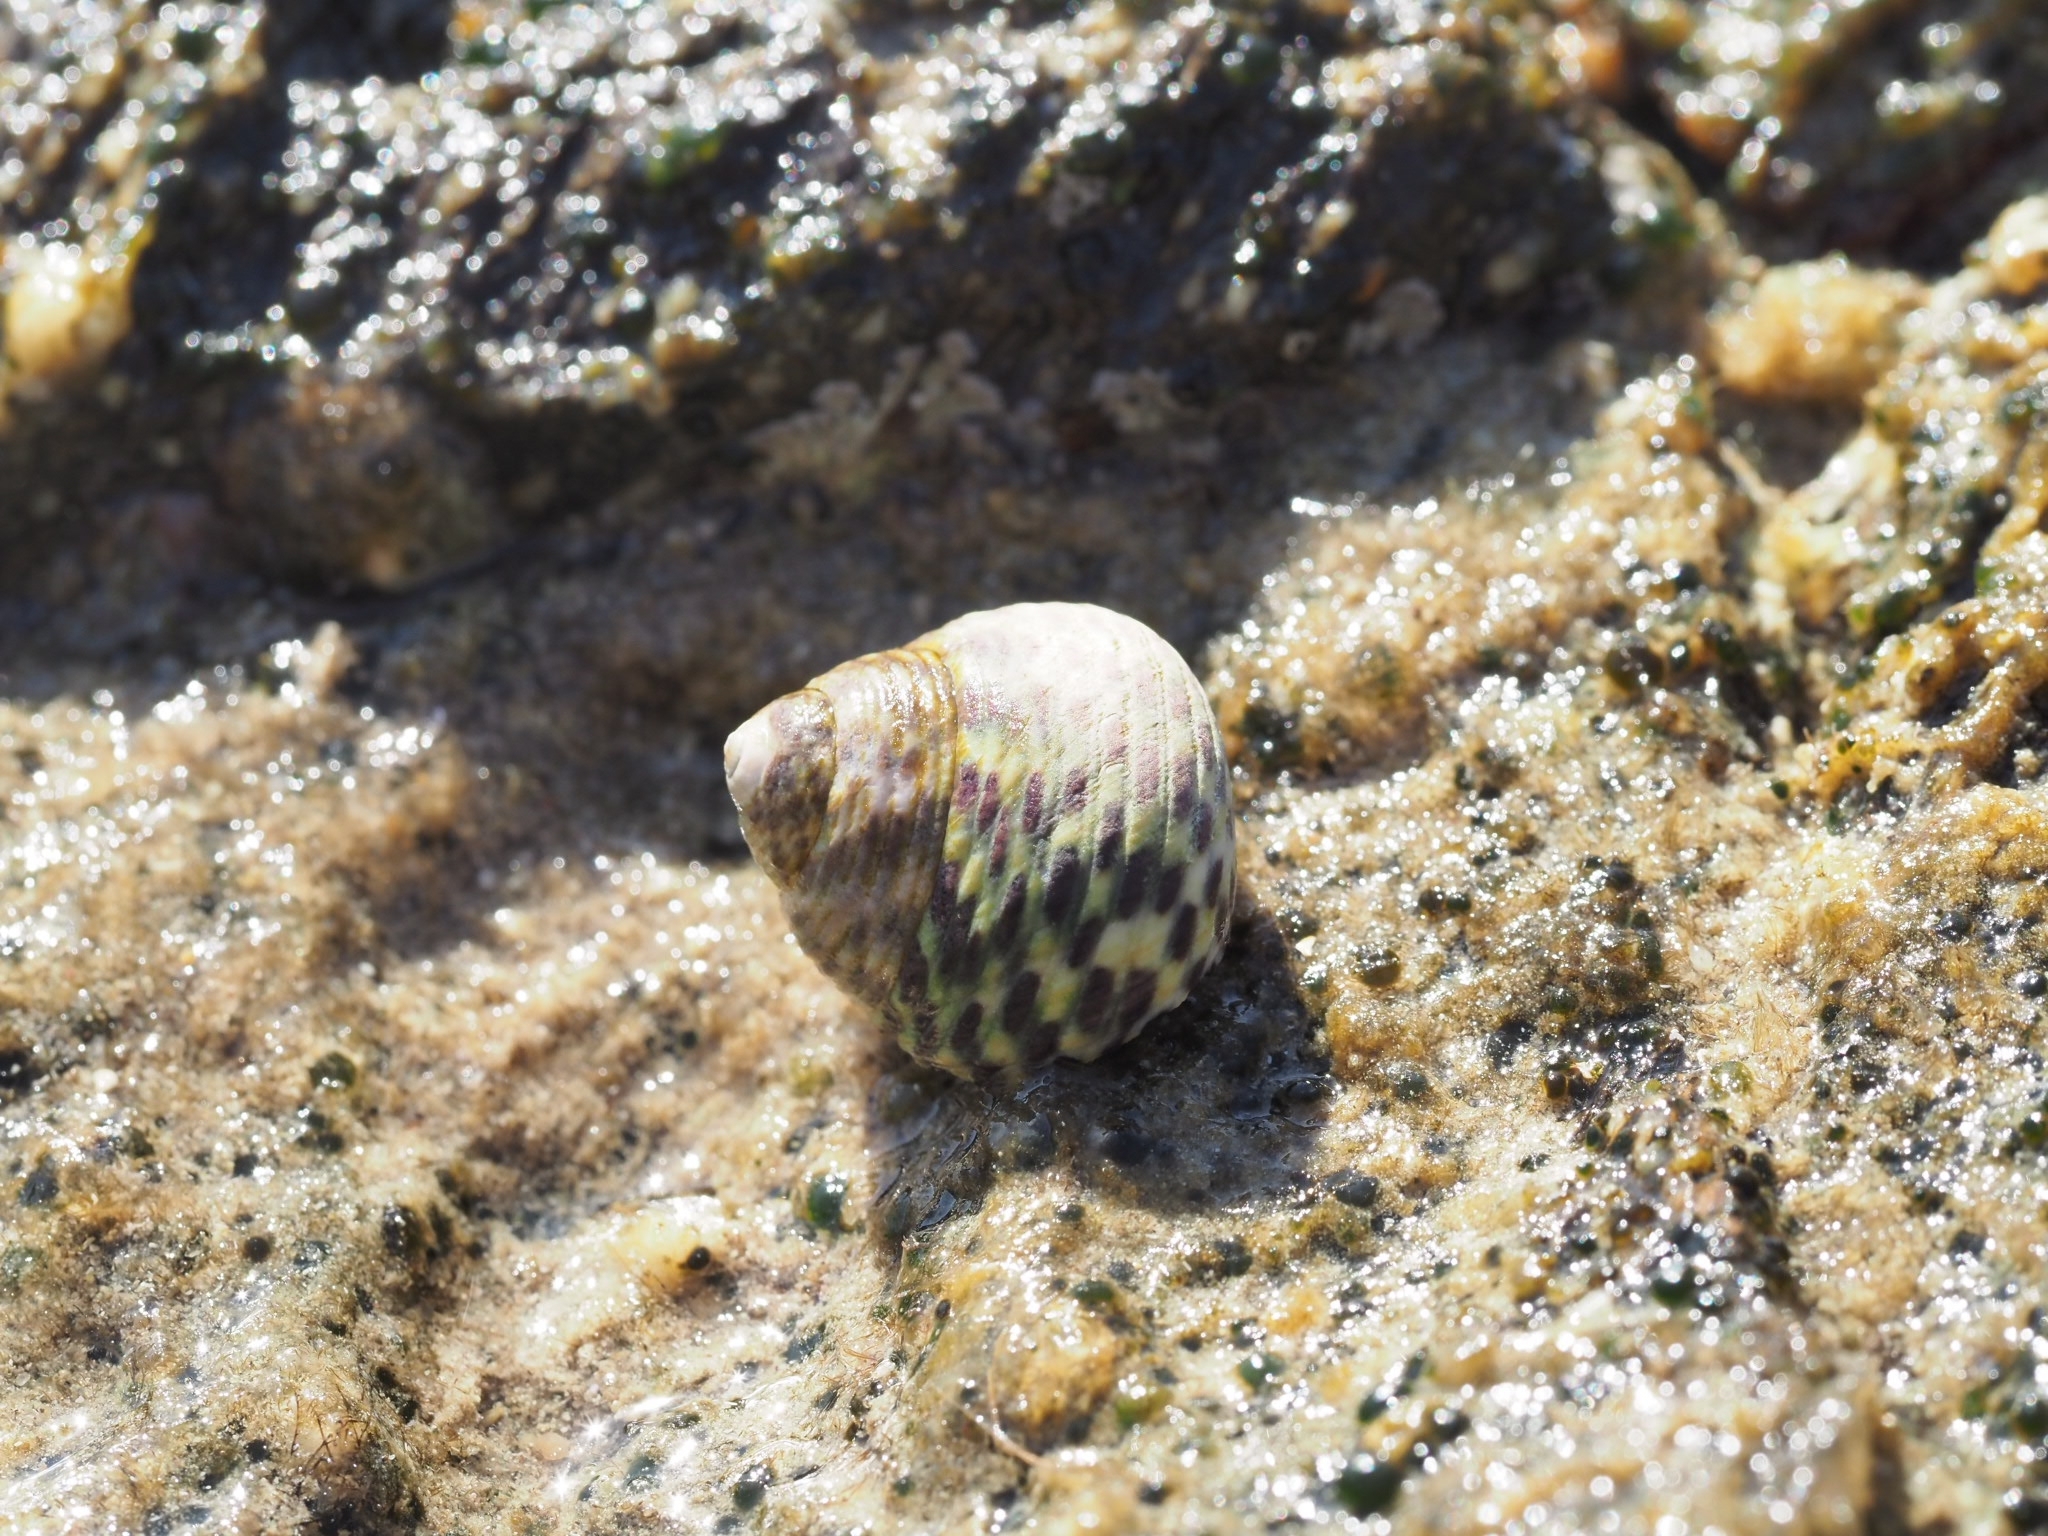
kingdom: Animalia
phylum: Mollusca
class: Gastropoda
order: Trochida
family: Trochidae
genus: Phorcus
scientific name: Phorcus turbinatus
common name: Turbinate monodont
